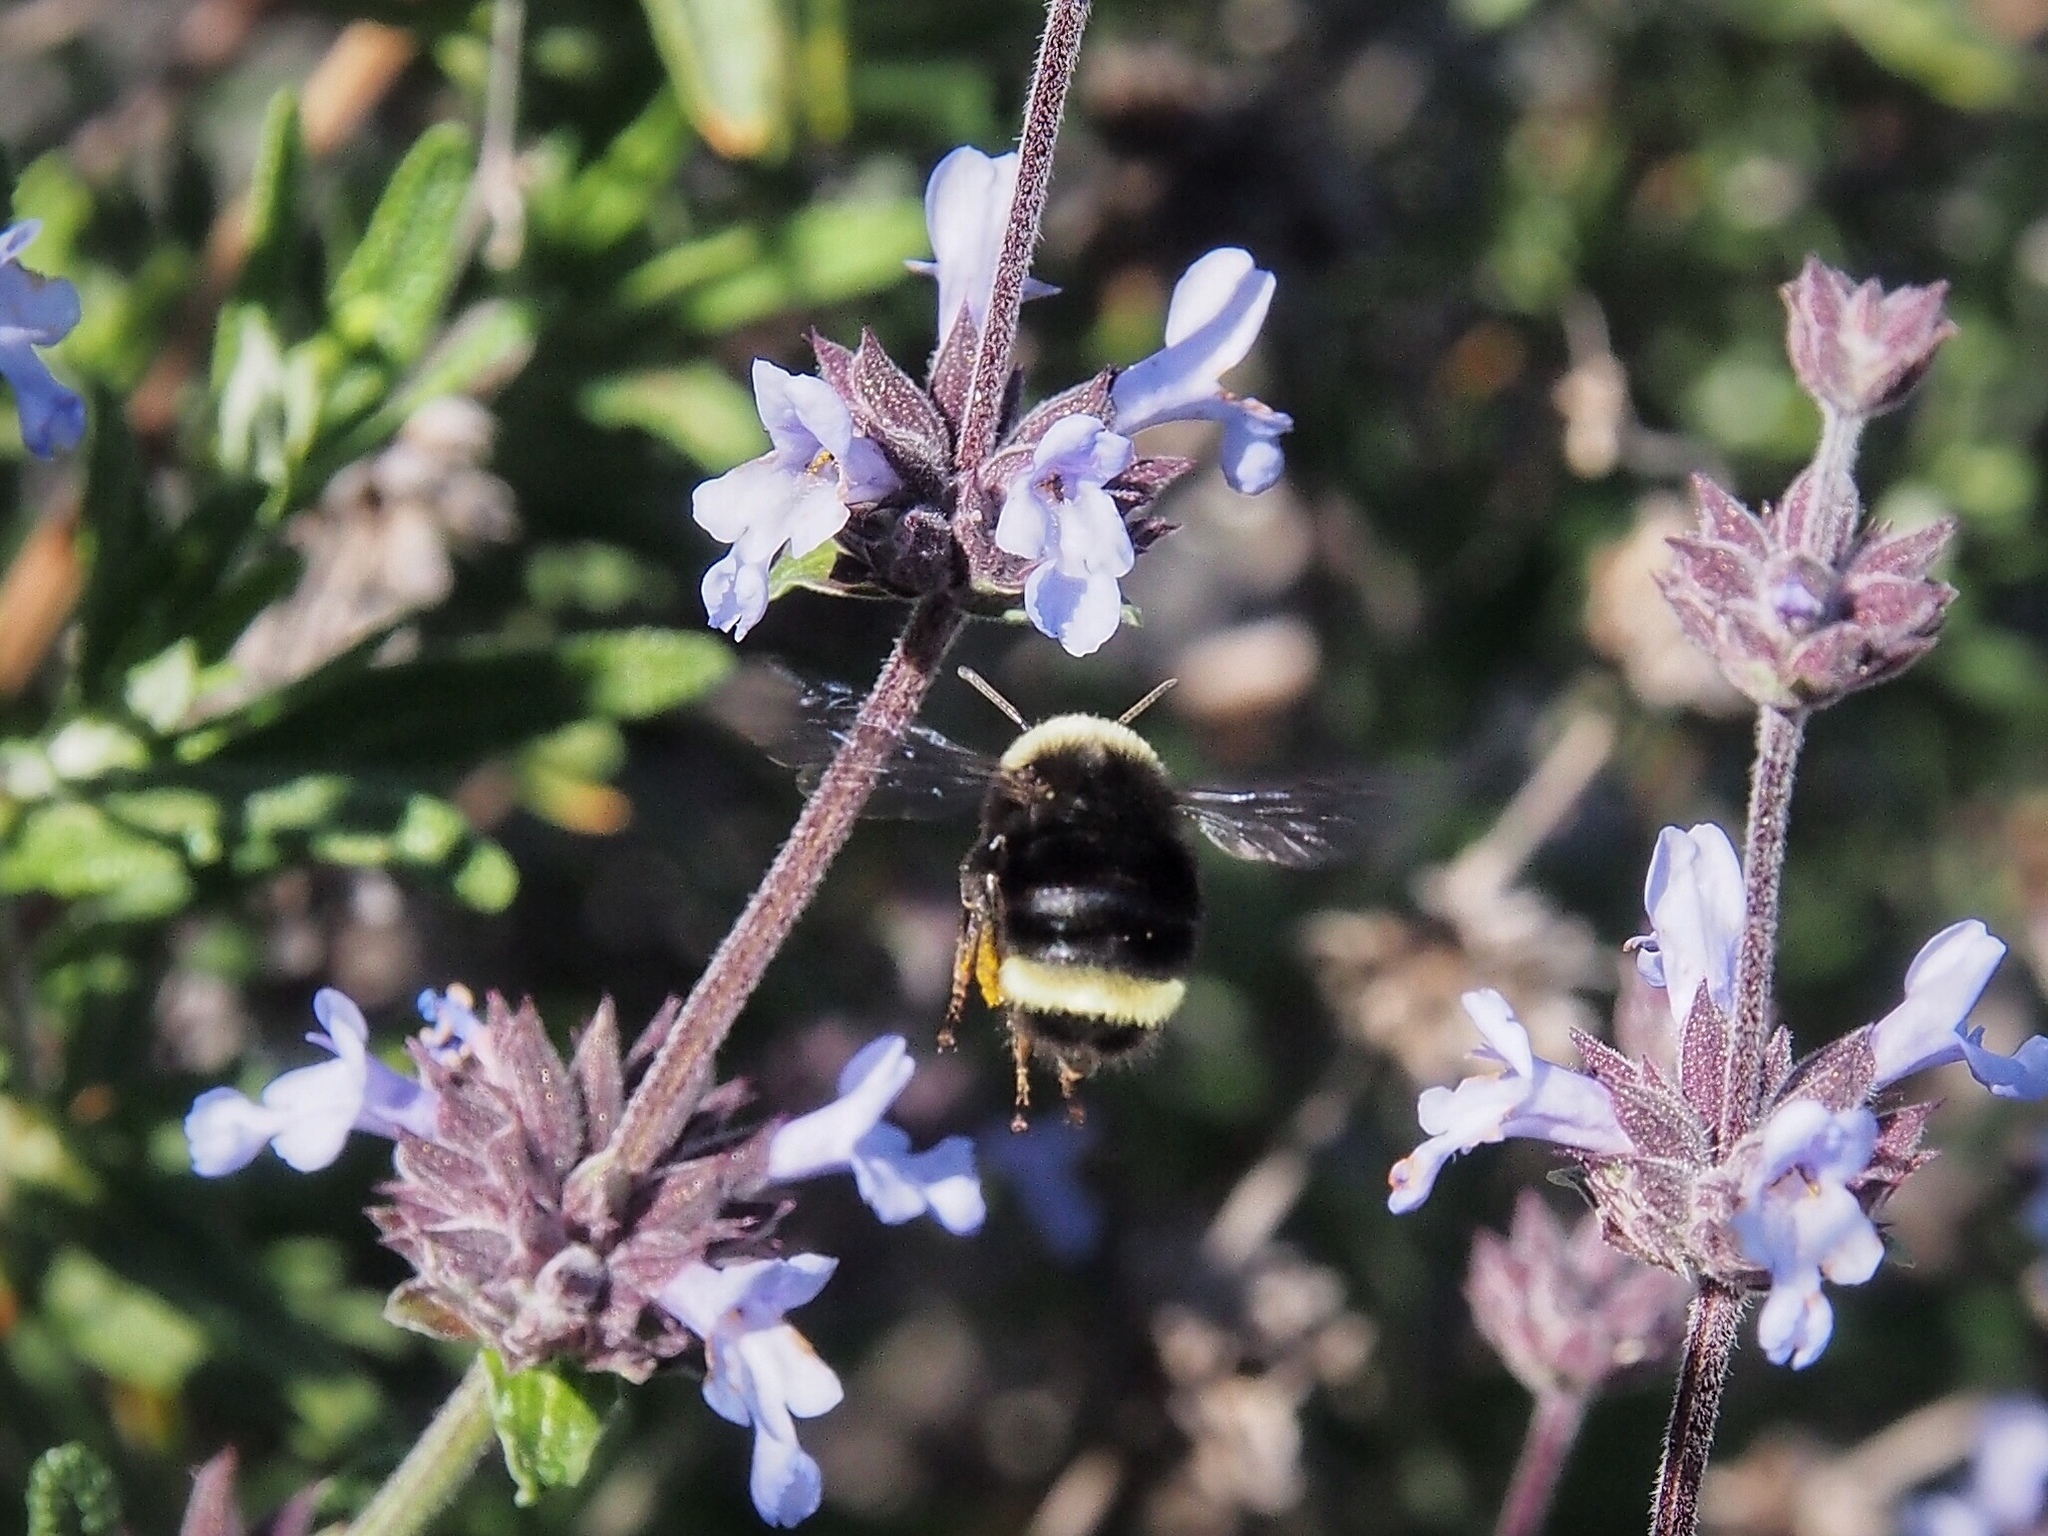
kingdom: Animalia
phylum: Arthropoda
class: Insecta
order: Hymenoptera
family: Apidae
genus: Bombus
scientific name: Bombus vosnesenskii
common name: Vosnesensky bumble bee
